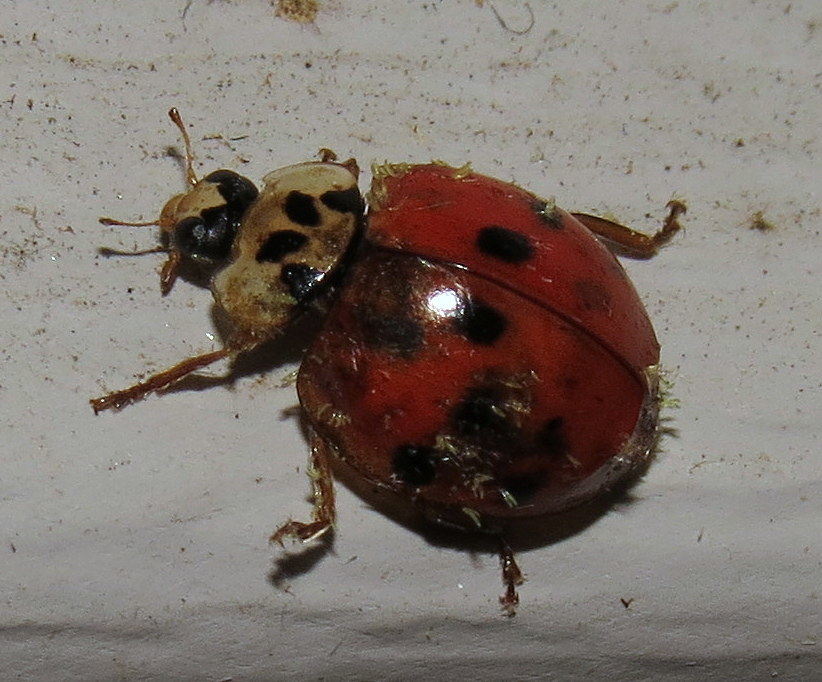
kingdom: Animalia
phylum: Arthropoda
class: Insecta
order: Coleoptera
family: Coccinellidae
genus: Harmonia
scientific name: Harmonia axyridis
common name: Harlequin ladybird
